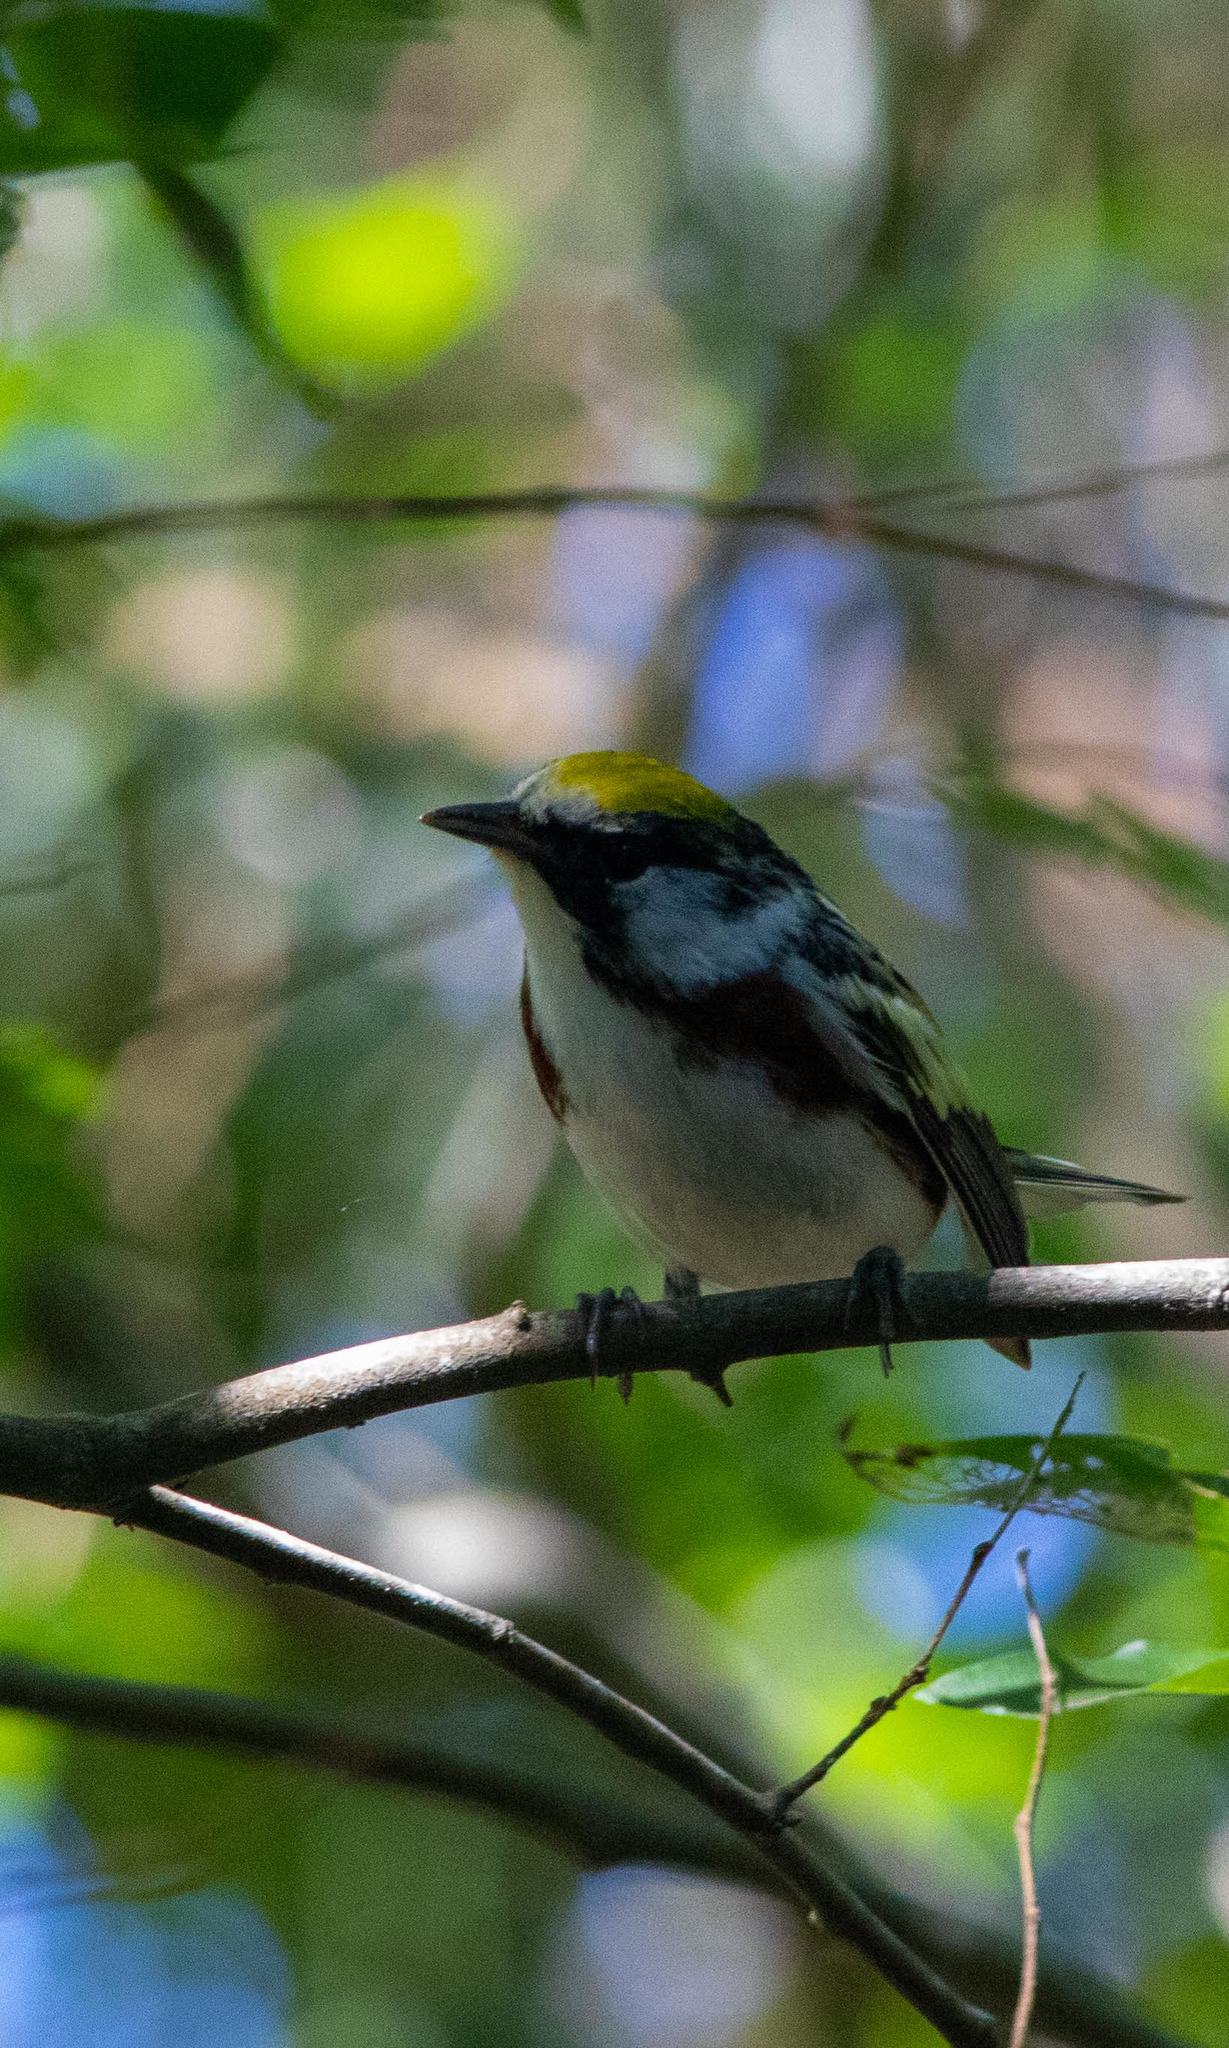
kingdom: Animalia
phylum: Chordata
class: Aves
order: Passeriformes
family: Parulidae
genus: Setophaga
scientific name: Setophaga pensylvanica
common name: Chestnut-sided warbler
